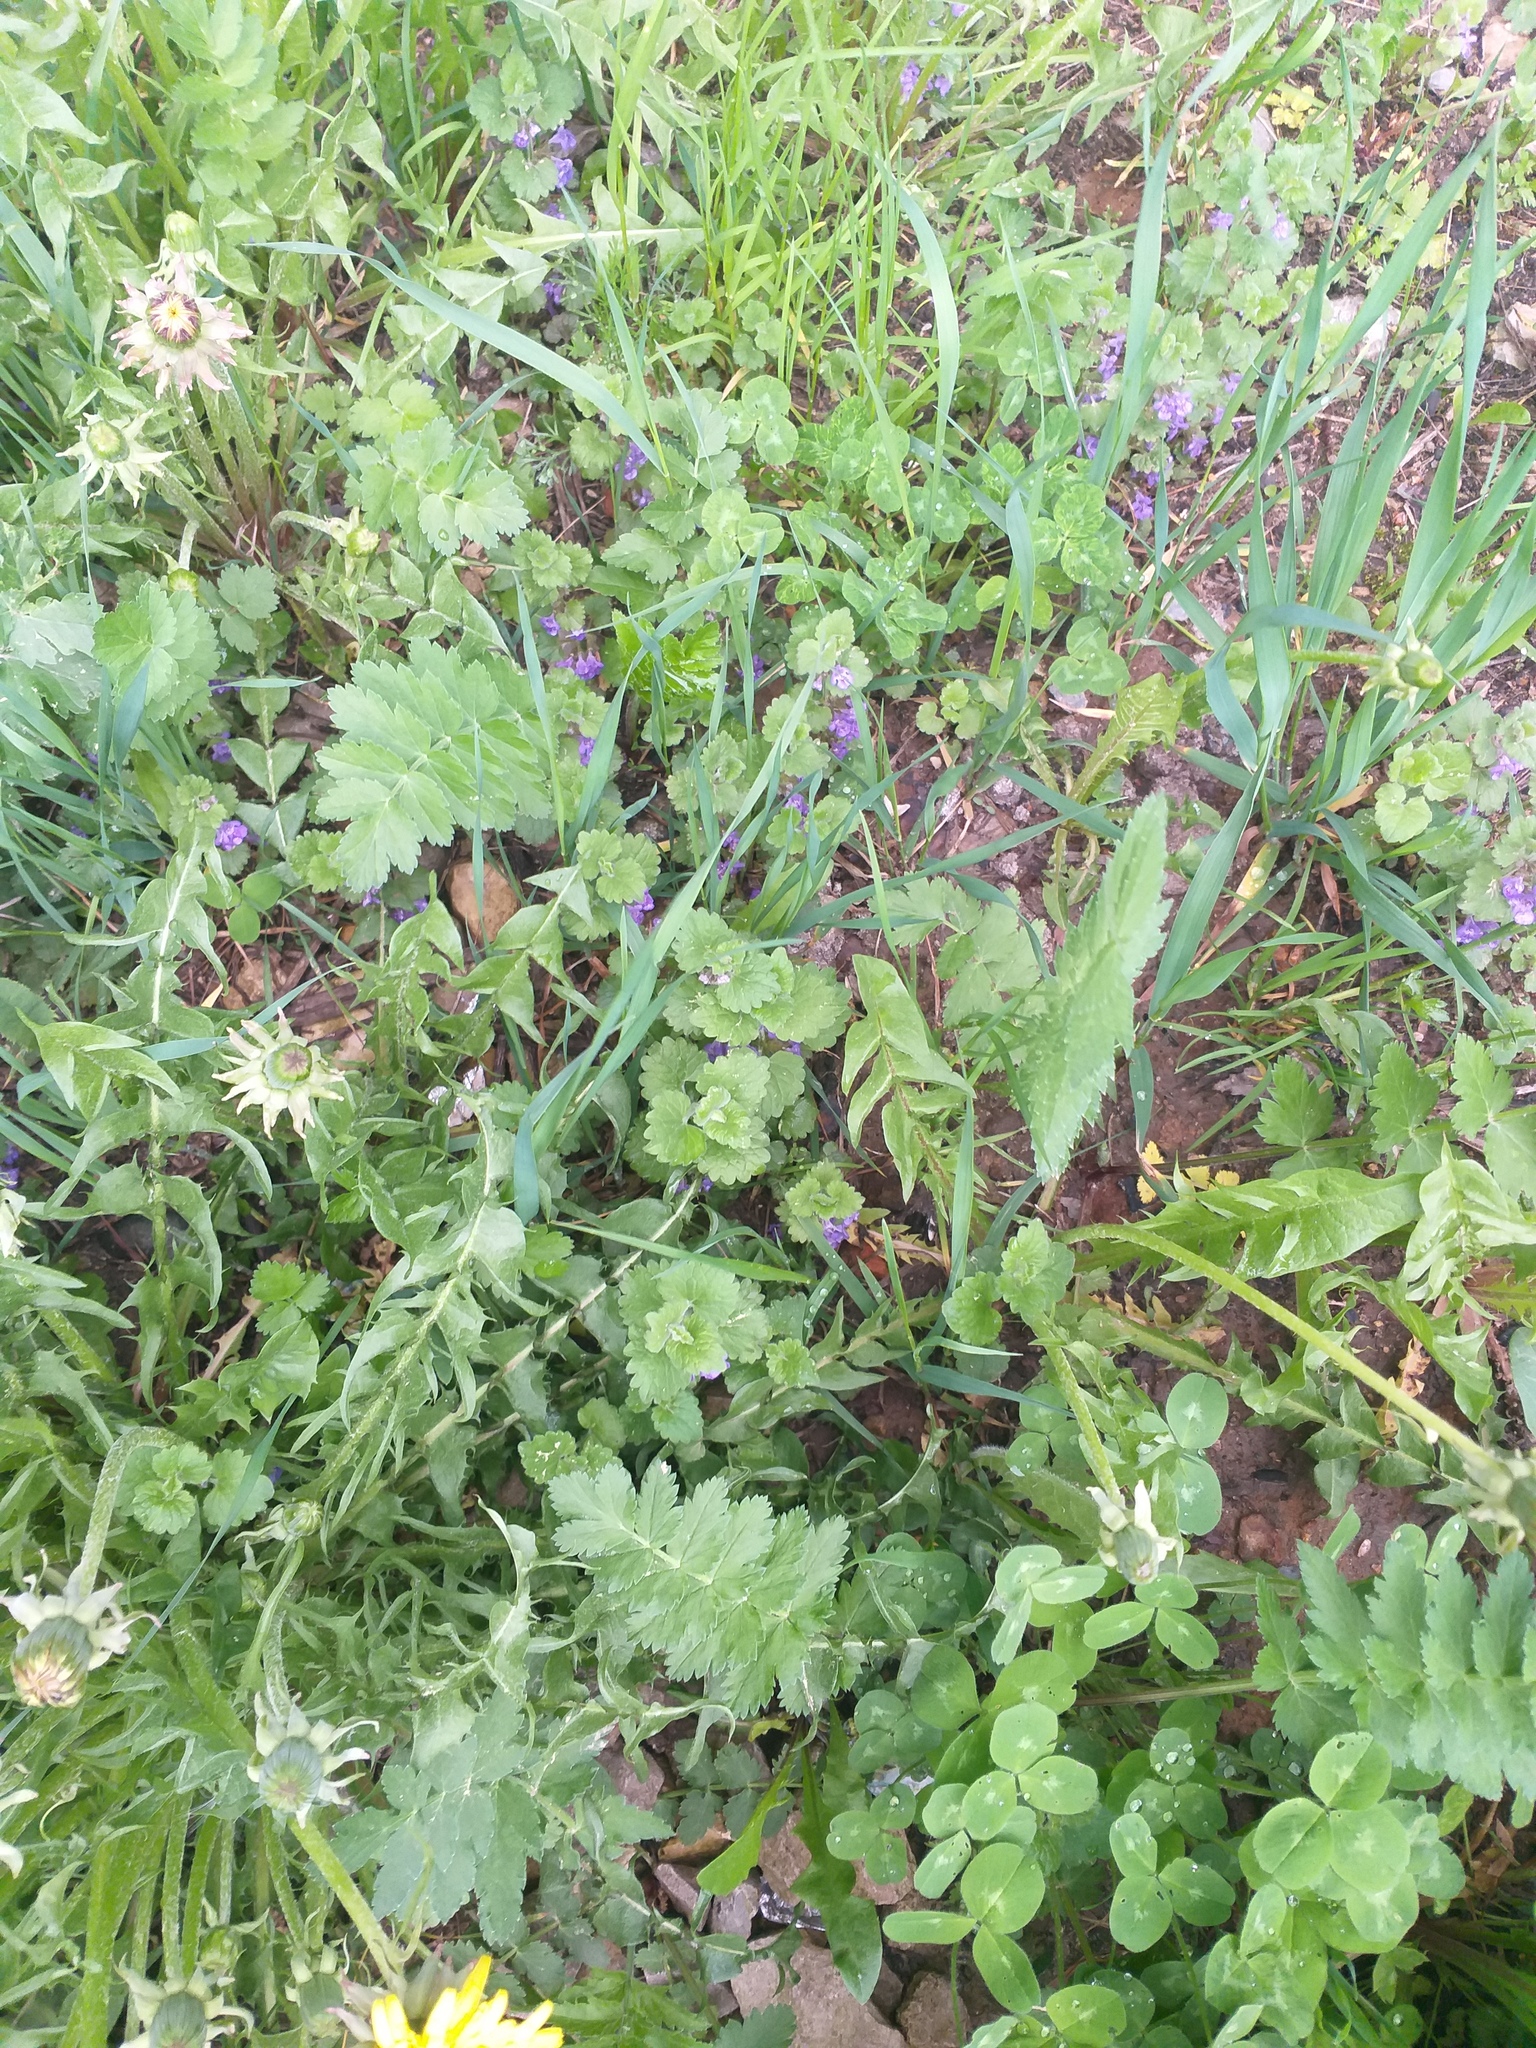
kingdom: Plantae
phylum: Tracheophyta
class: Magnoliopsida
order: Lamiales
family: Lamiaceae
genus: Glechoma
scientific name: Glechoma hederacea
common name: Ground ivy
